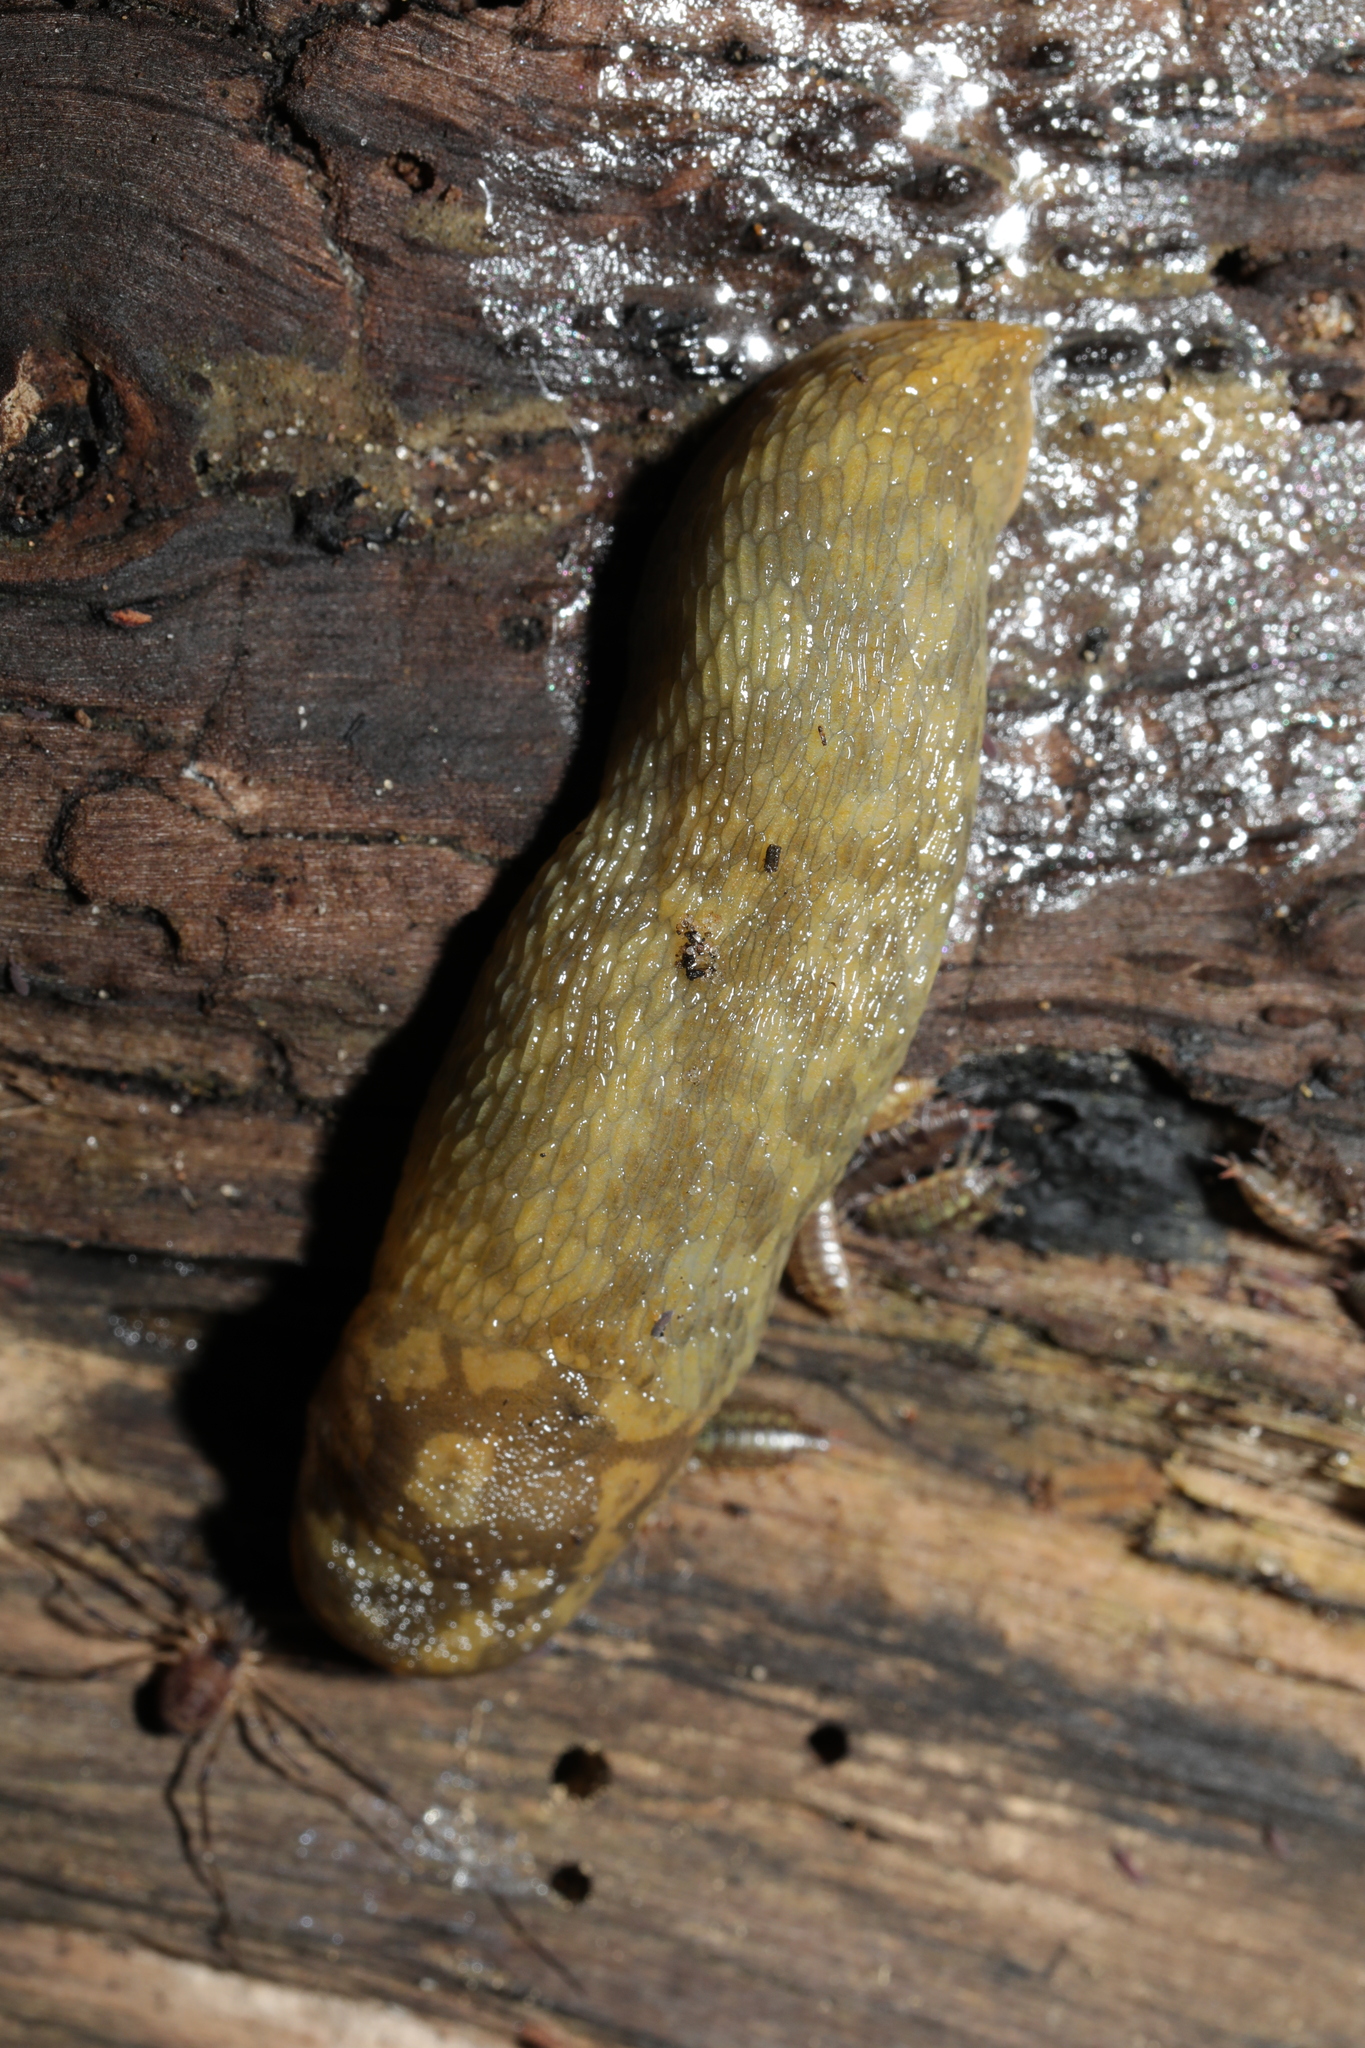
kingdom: Animalia
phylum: Mollusca
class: Gastropoda
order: Stylommatophora
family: Limacidae
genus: Limacus
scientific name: Limacus maculatus
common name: Irish yellow slug
